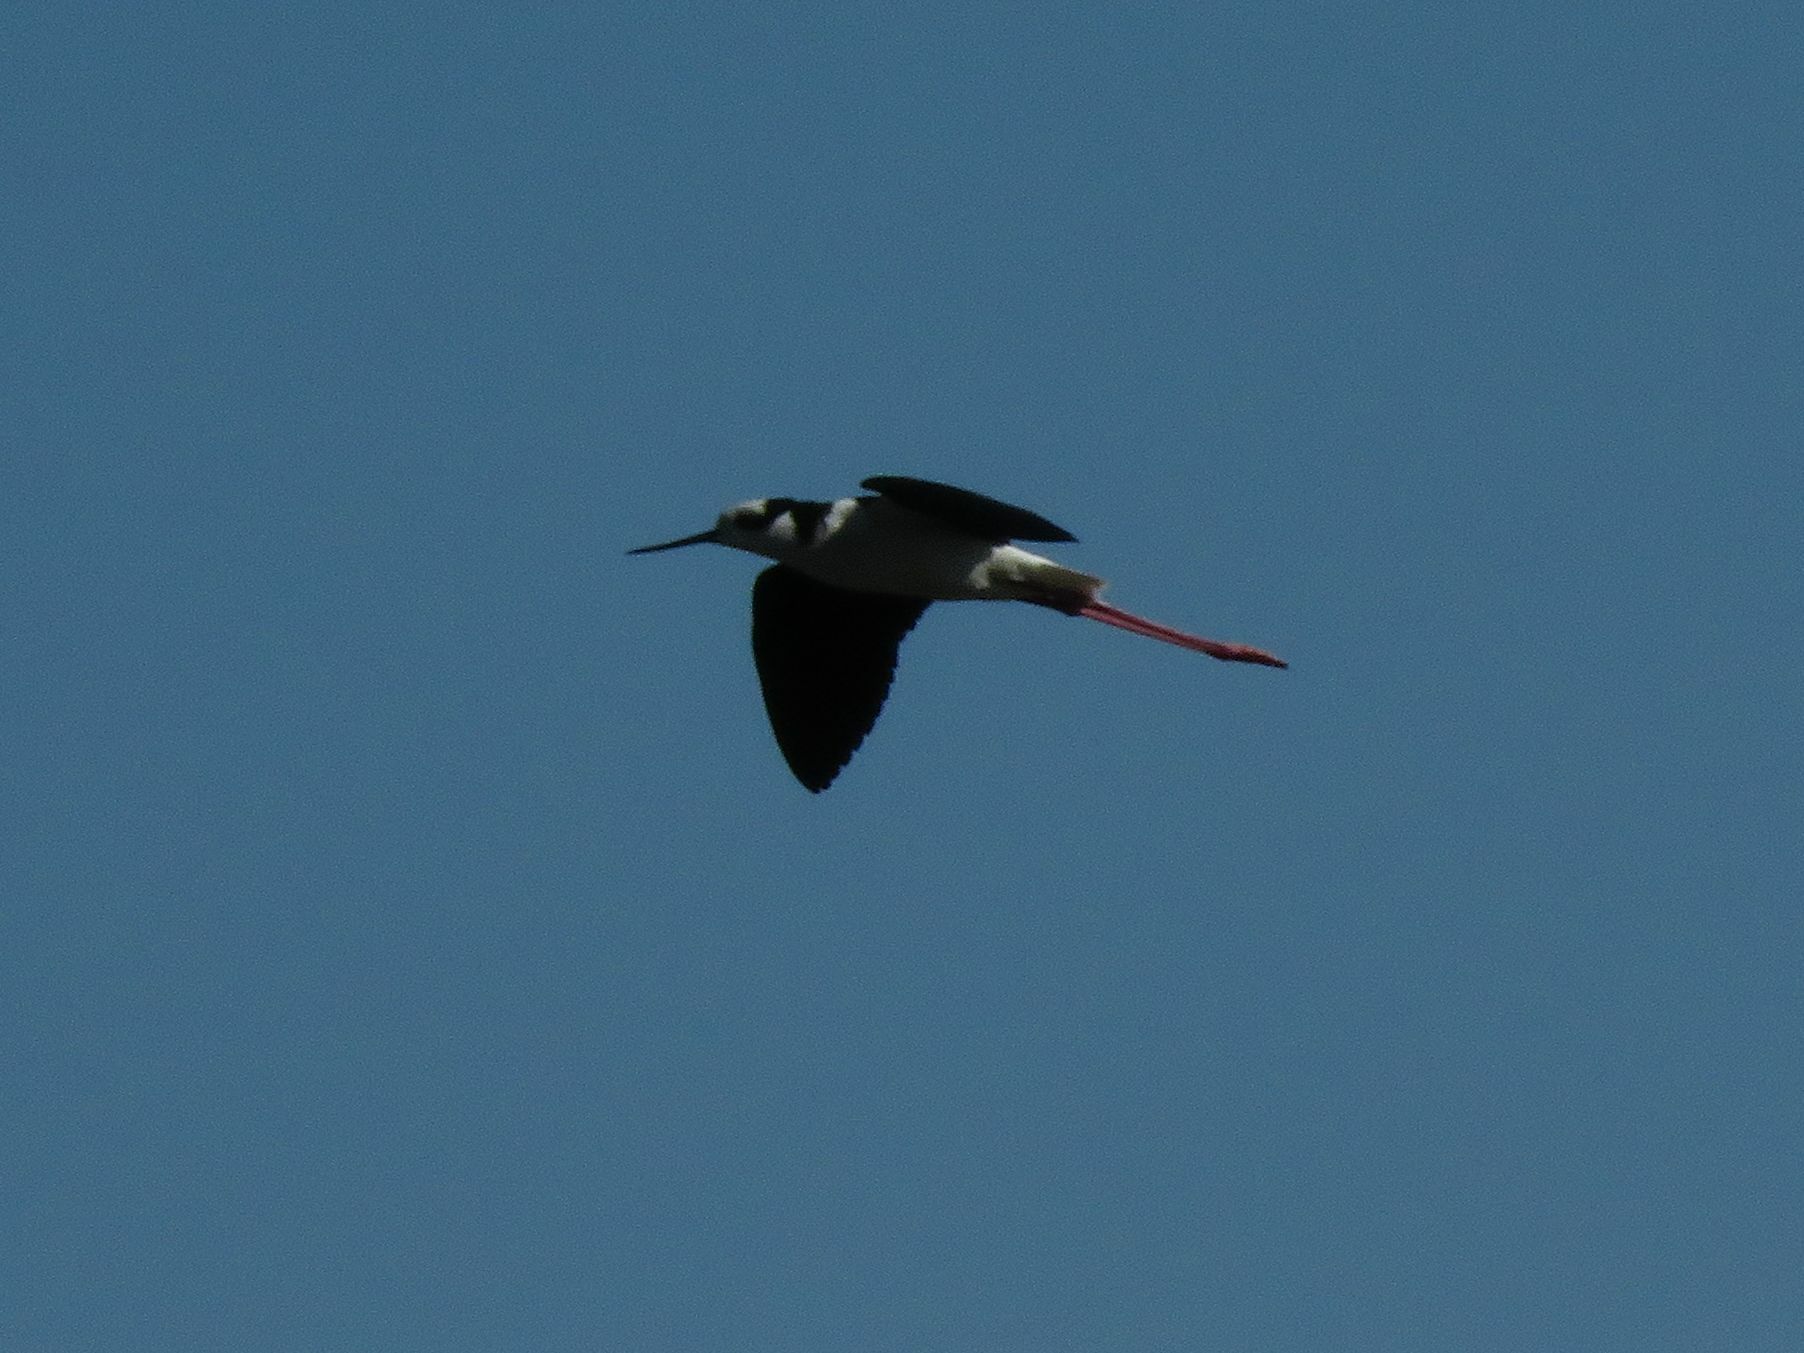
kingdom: Animalia
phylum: Chordata
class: Aves
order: Charadriiformes
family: Recurvirostridae
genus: Himantopus
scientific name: Himantopus mexicanus
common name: Black-necked stilt
